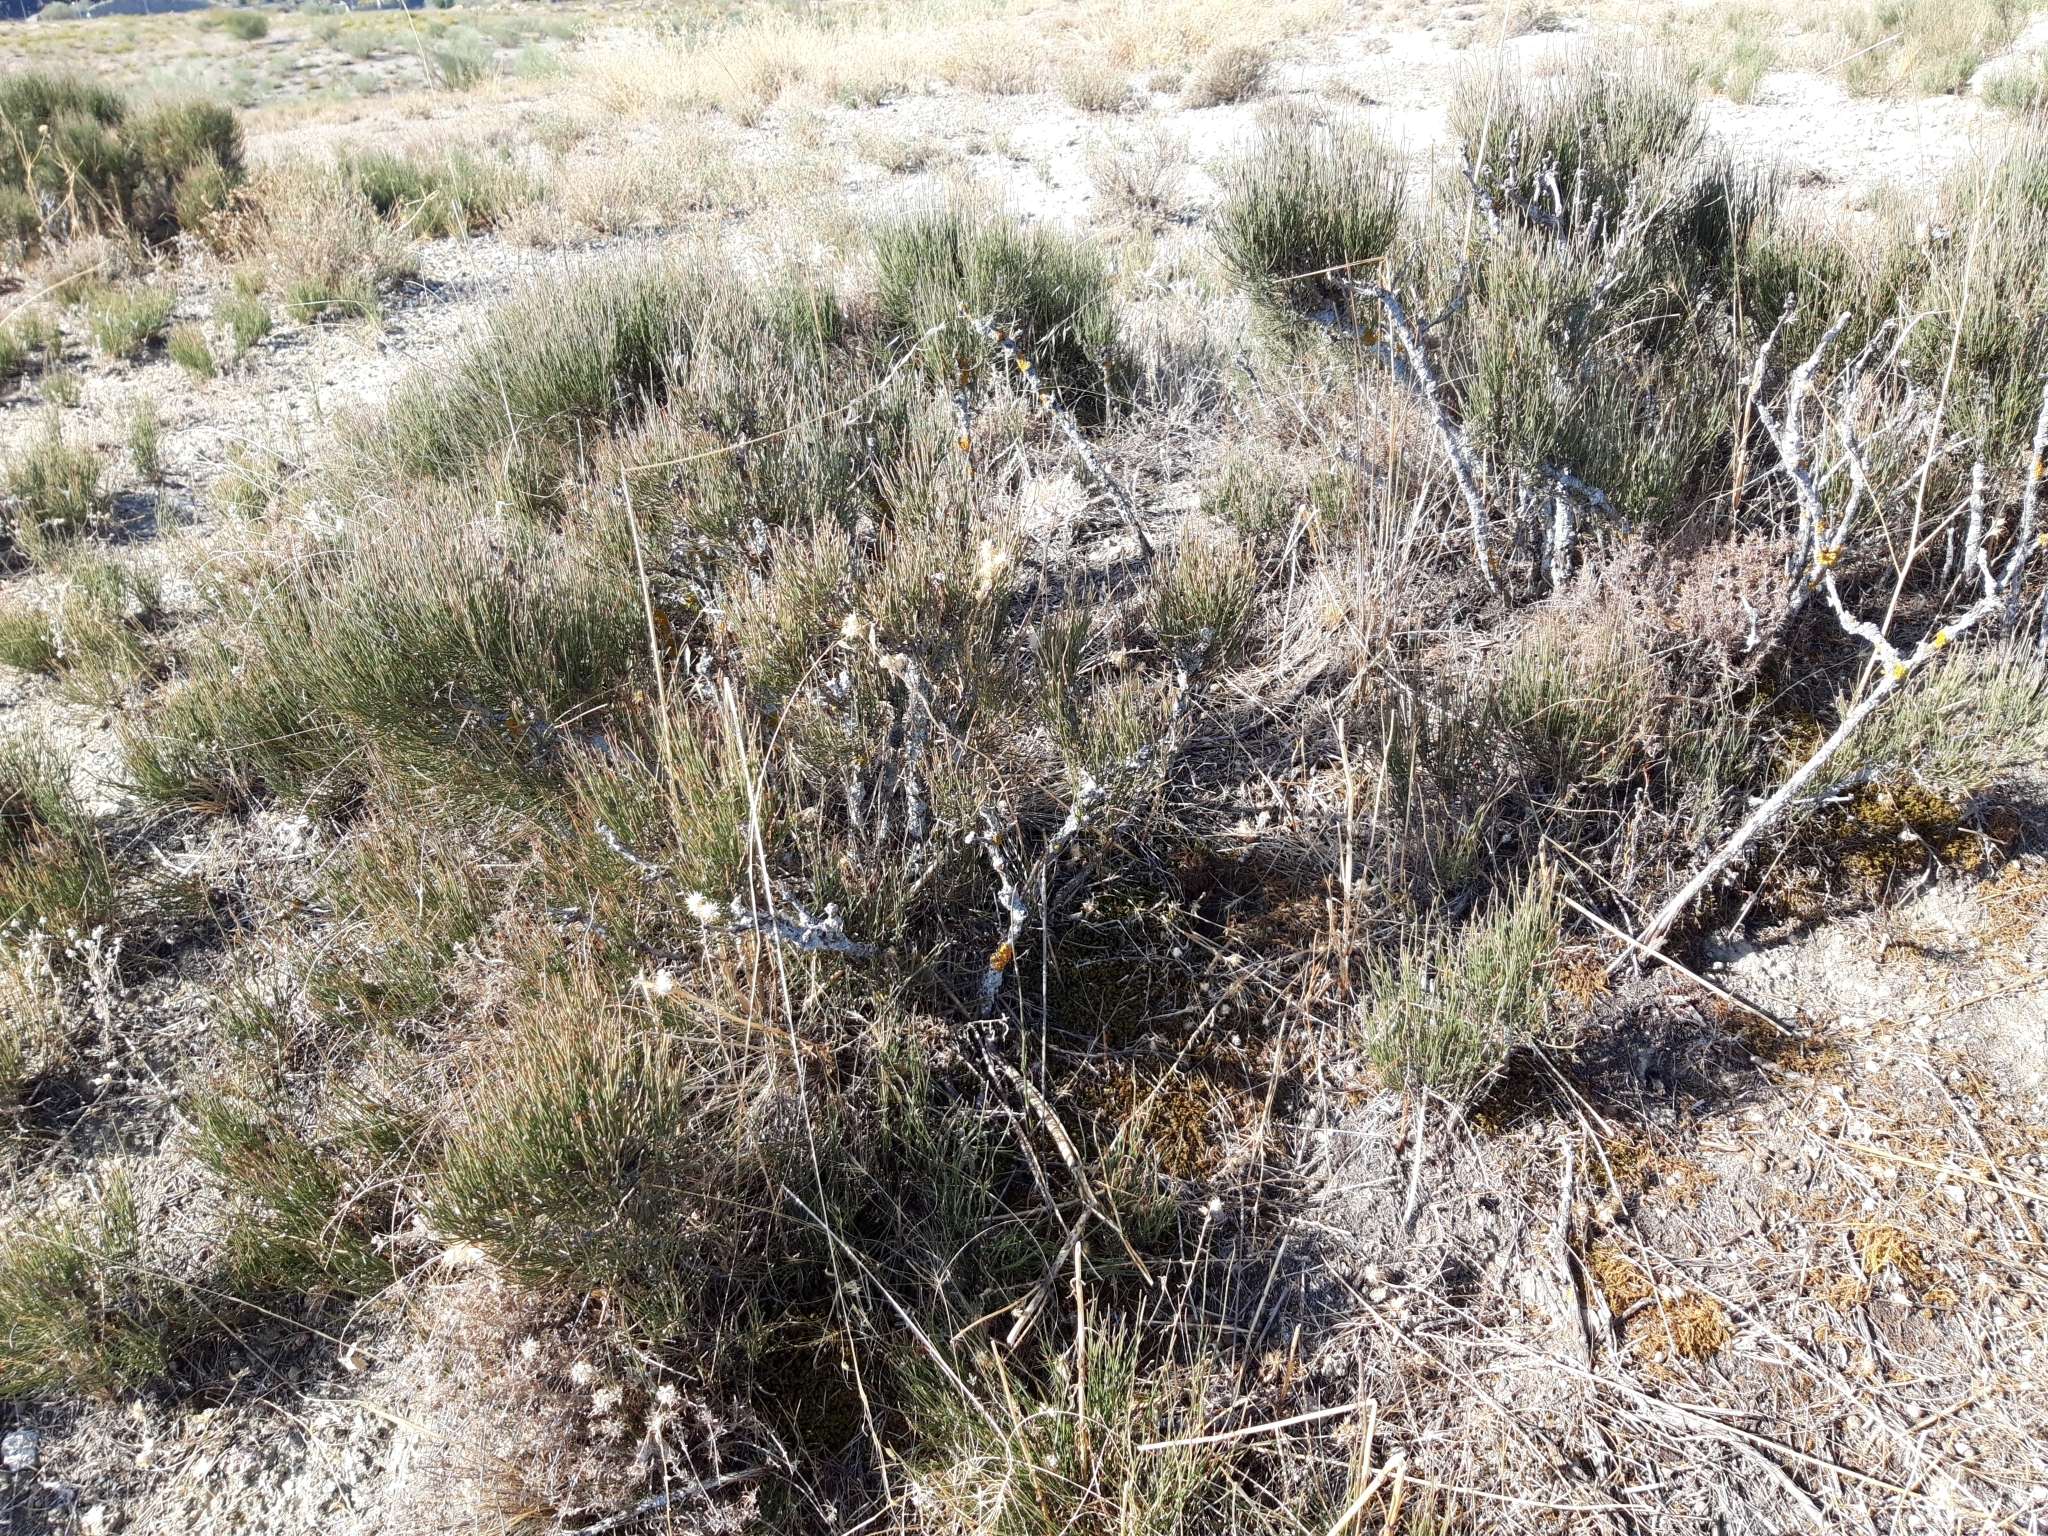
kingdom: Plantae
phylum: Tracheophyta
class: Gnetopsida
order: Ephedrales
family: Ephedraceae
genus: Ephedra
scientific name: Ephedra nebrodensis
